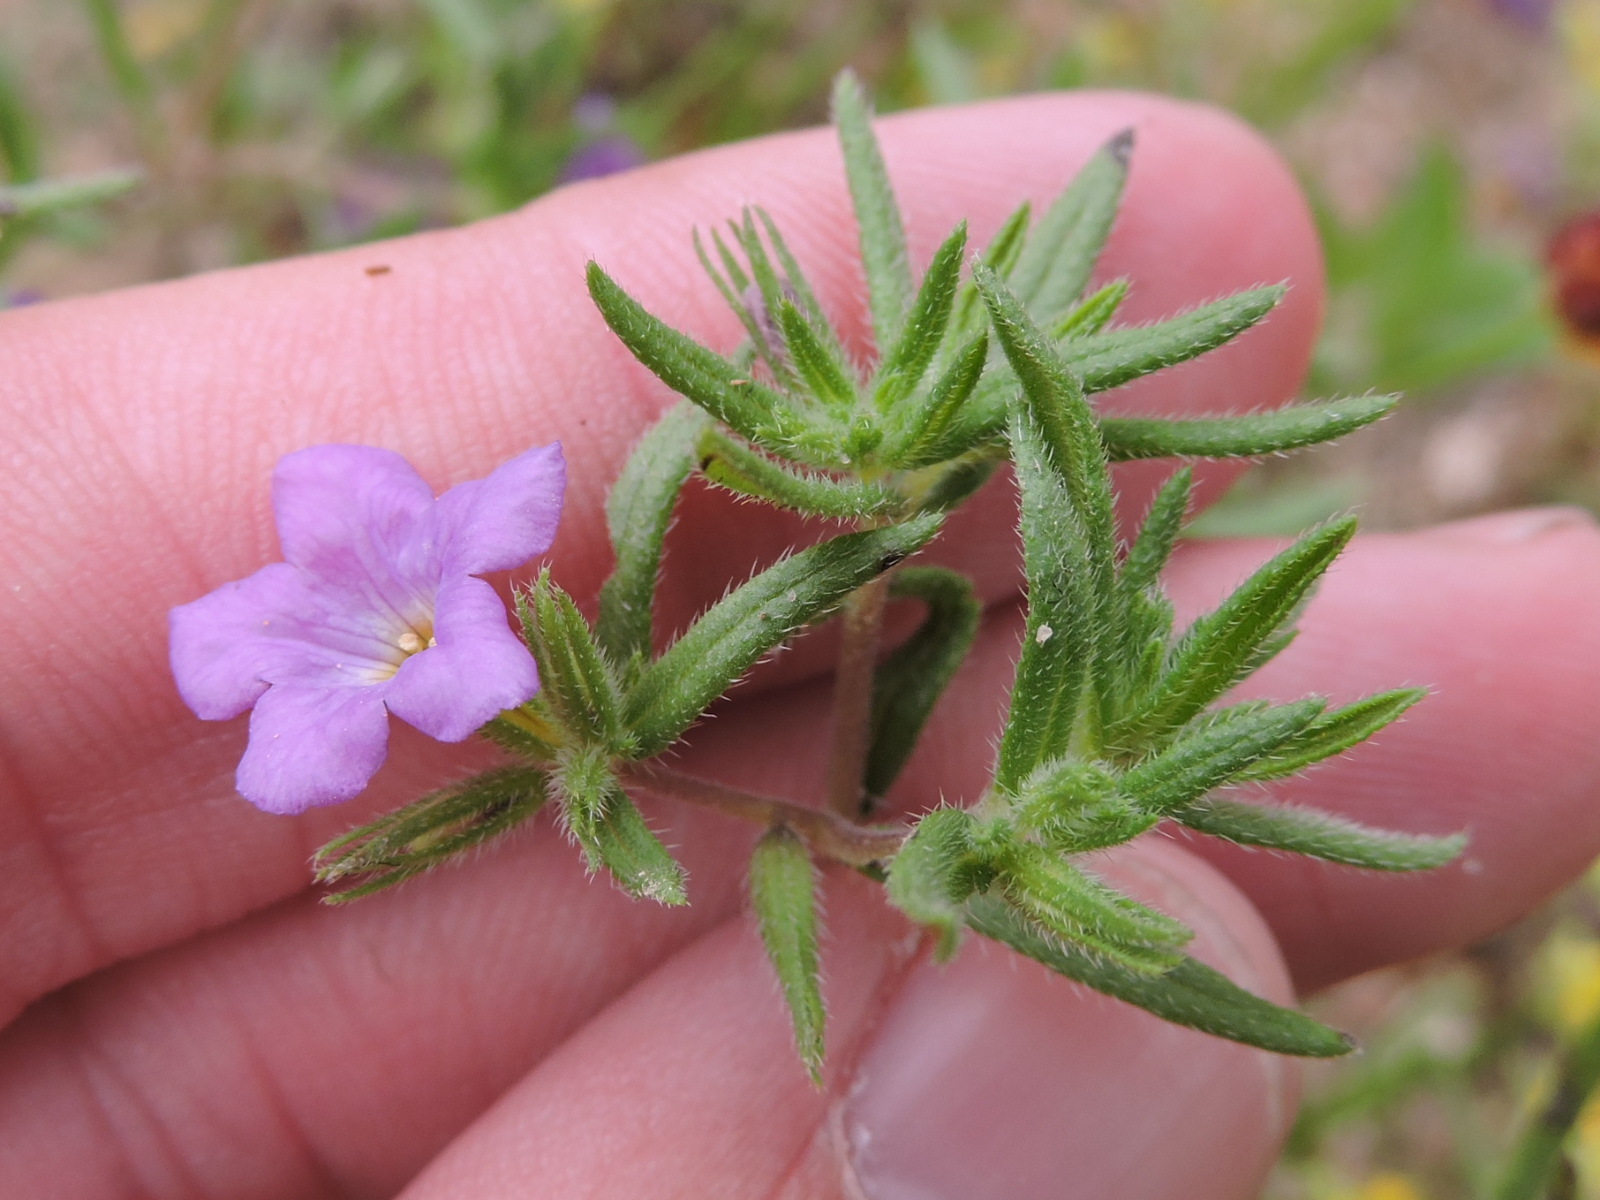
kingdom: Plantae
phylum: Tracheophyta
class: Magnoliopsida
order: Boraginales
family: Namaceae
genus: Nama
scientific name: Nama hispida
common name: Bristly nama
